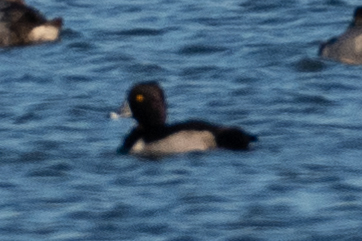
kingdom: Animalia
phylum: Chordata
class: Aves
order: Anseriformes
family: Anatidae
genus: Aythya
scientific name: Aythya collaris
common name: Ring-necked duck
